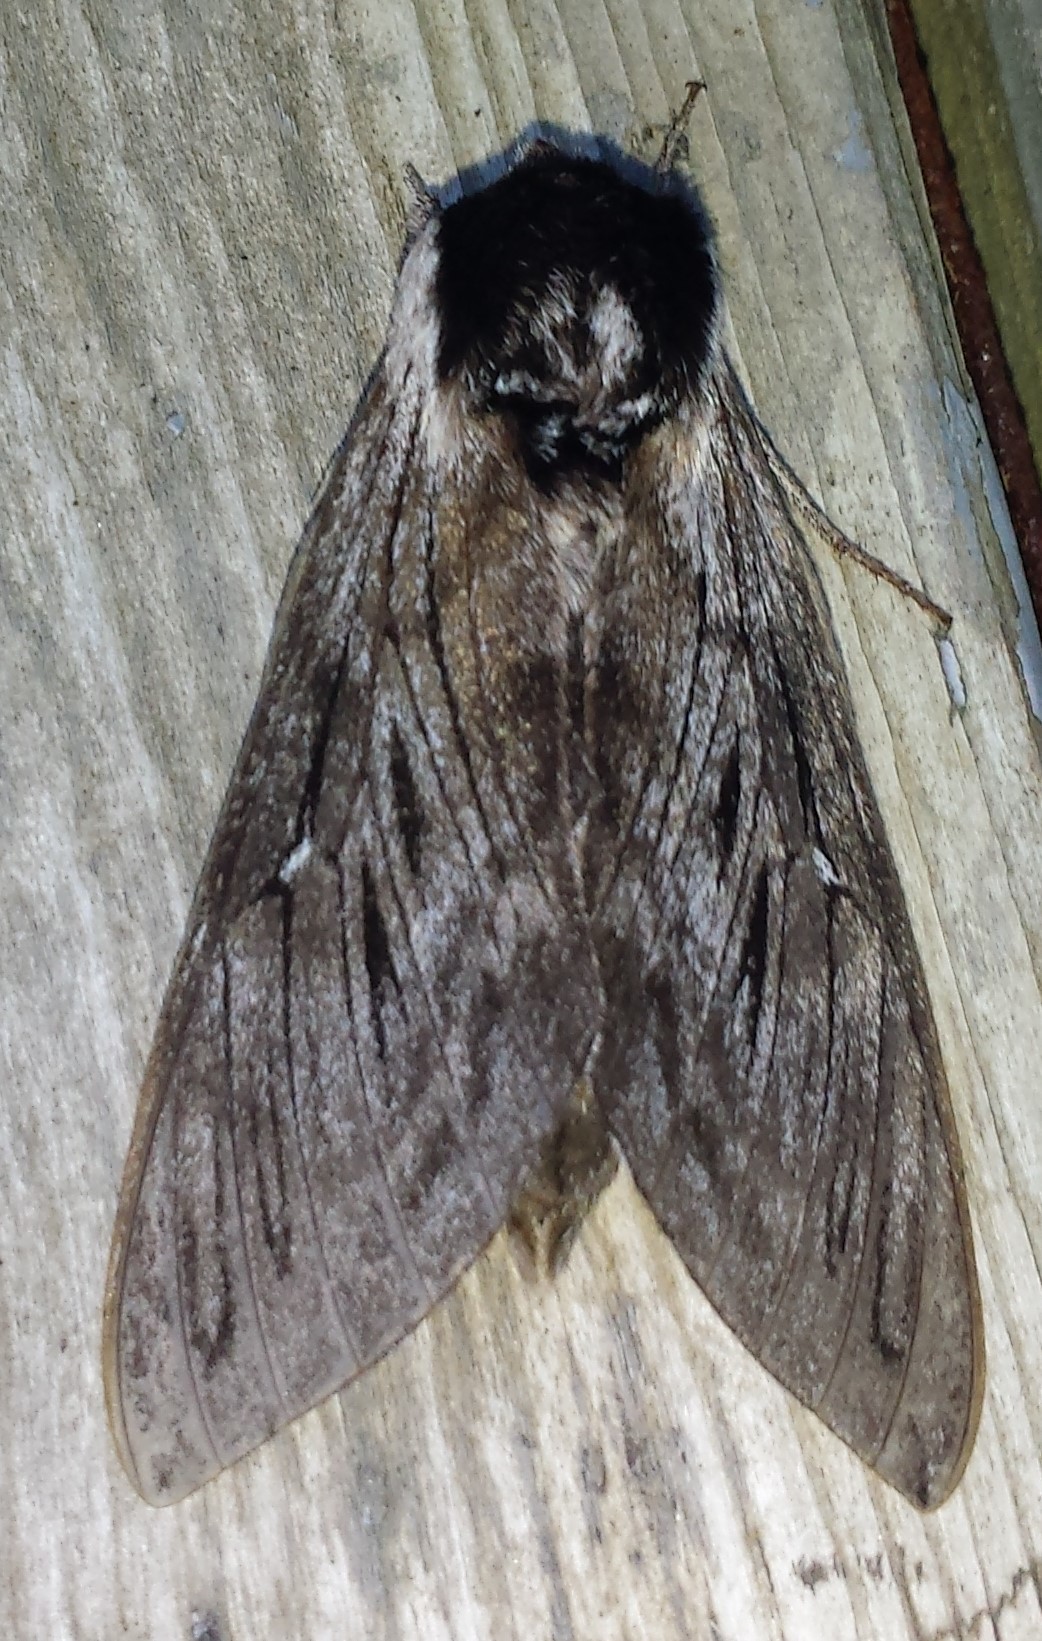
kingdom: Animalia
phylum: Arthropoda
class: Insecta
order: Lepidoptera
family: Sphingidae
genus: Sphinx
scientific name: Sphinx poecila
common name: Northern apple sphinx
